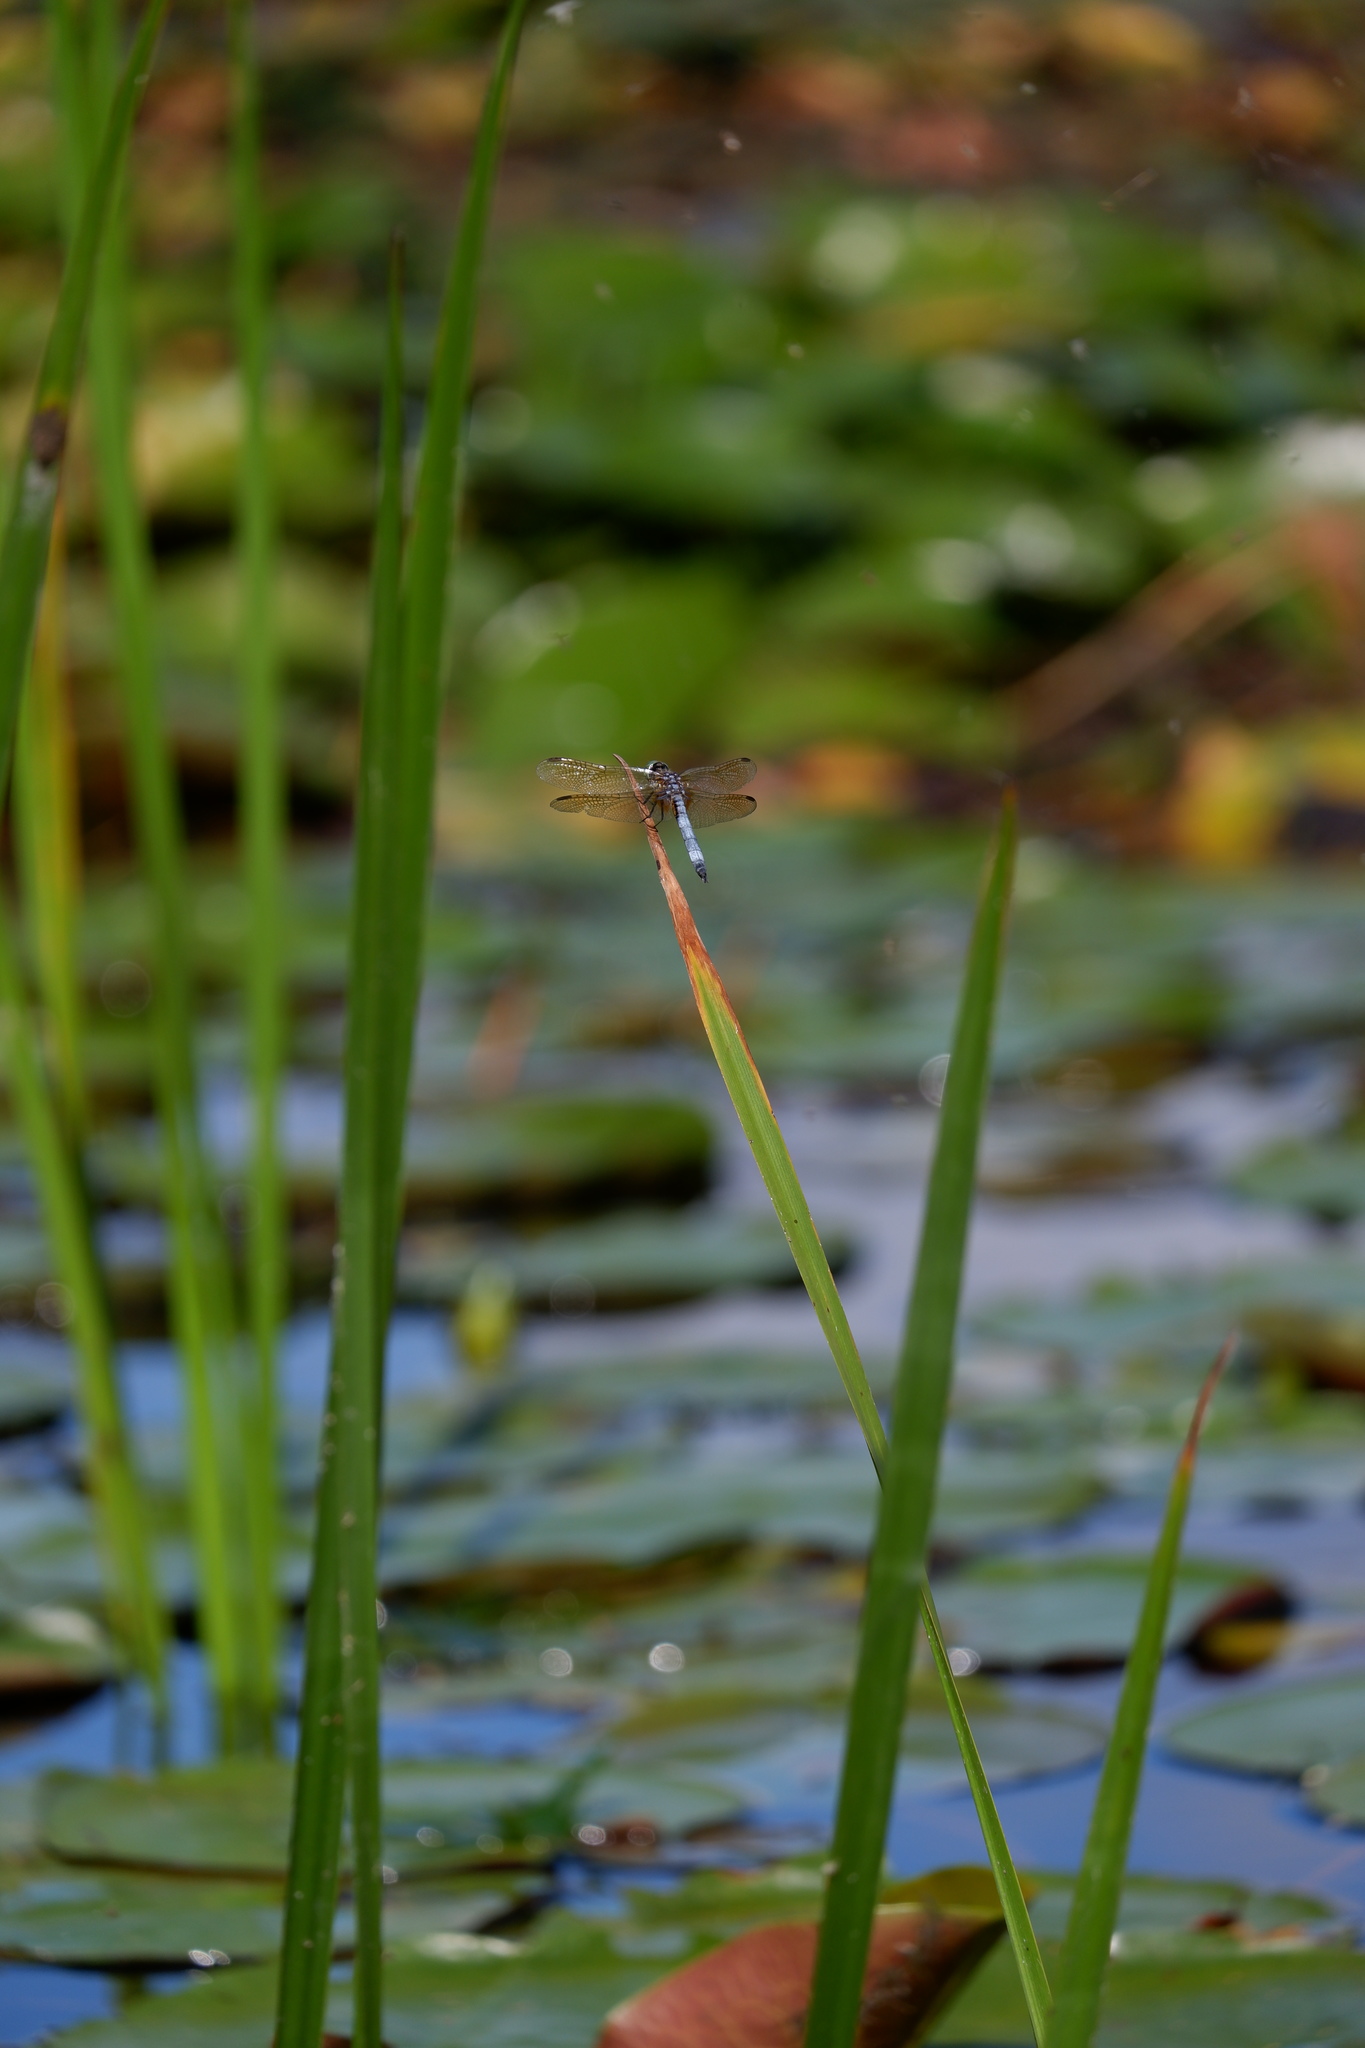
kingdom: Animalia
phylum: Arthropoda
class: Insecta
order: Odonata
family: Libellulidae
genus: Pachydiplax
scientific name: Pachydiplax longipennis
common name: Blue dasher
